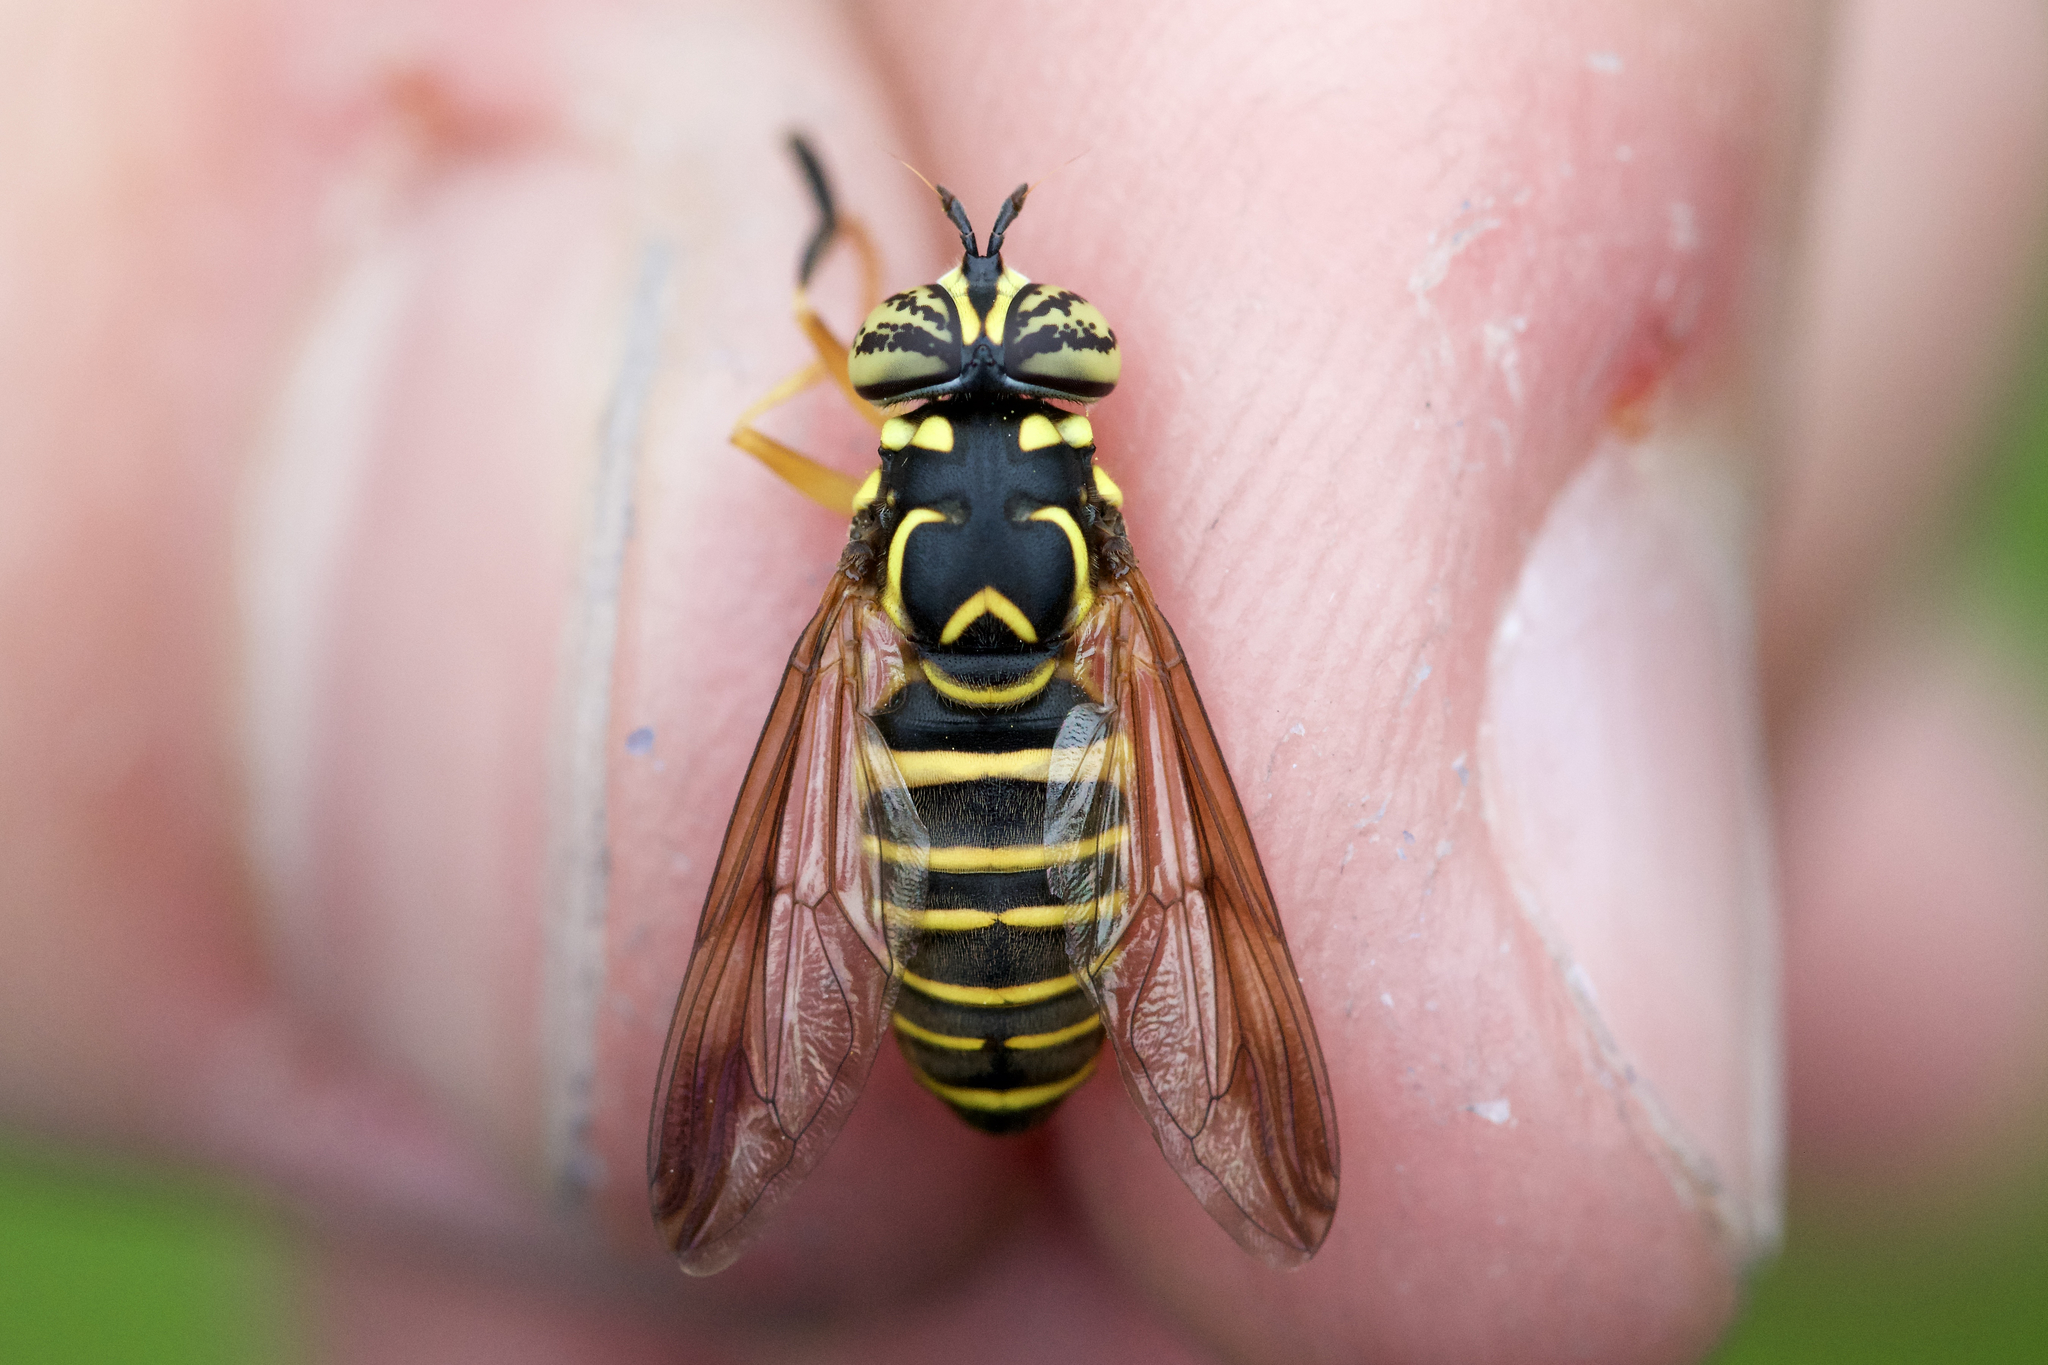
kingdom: Animalia
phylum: Arthropoda
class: Insecta
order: Diptera
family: Syrphidae
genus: Spilomyia
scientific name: Spilomyia longicornis
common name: Eastern hornet fly
